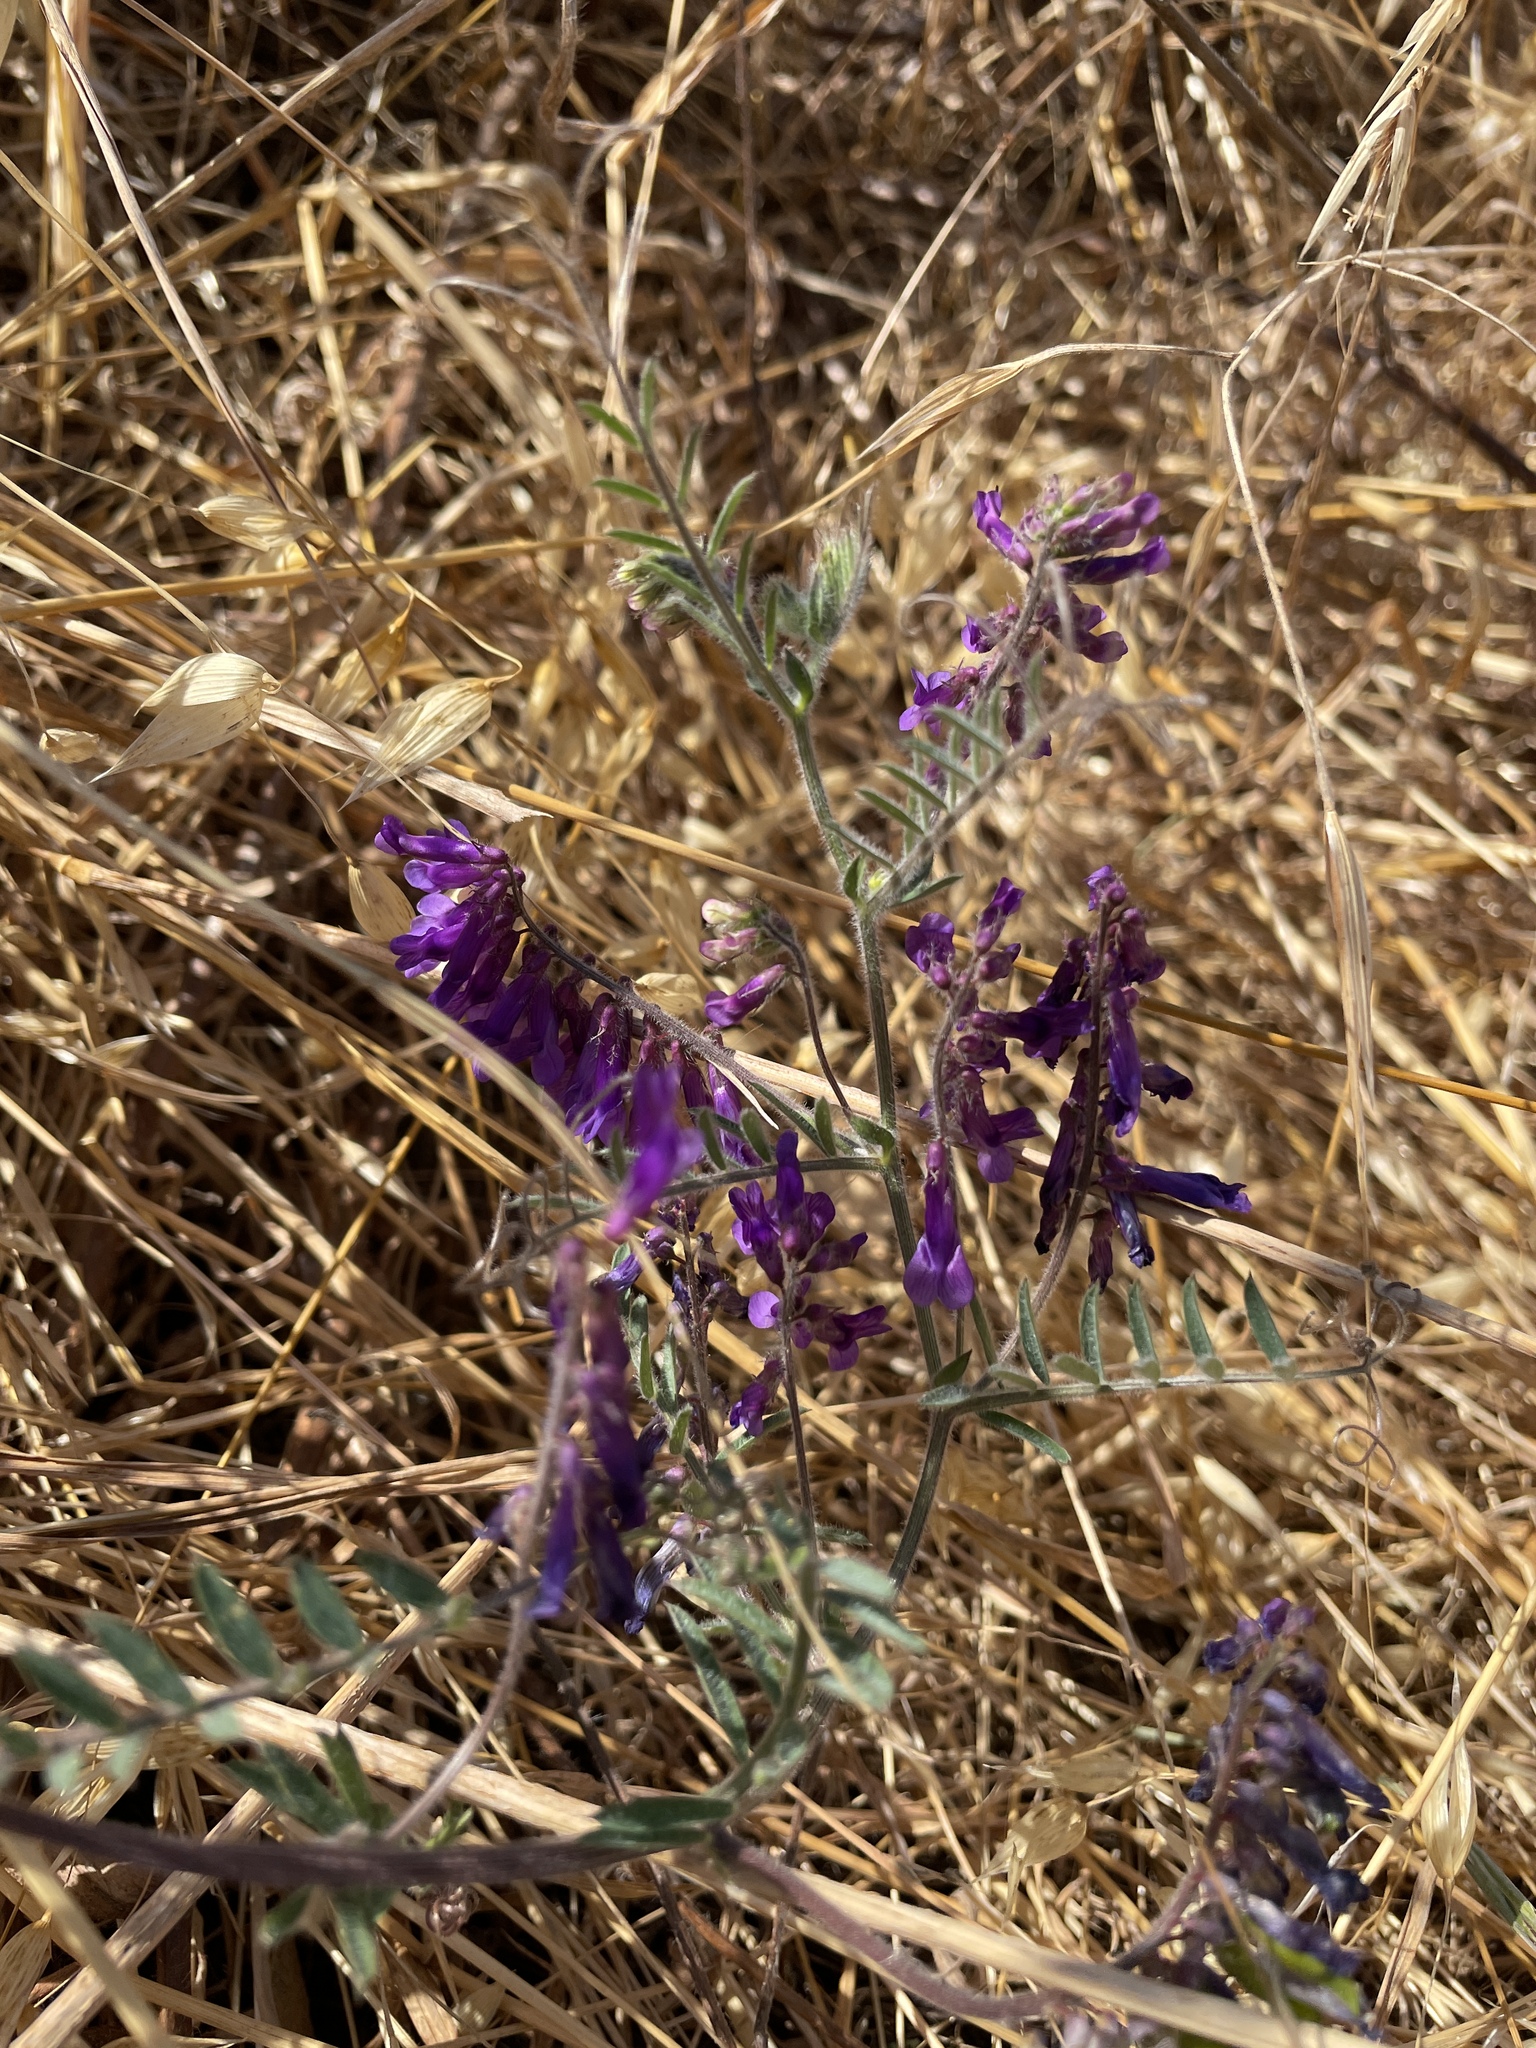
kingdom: Plantae
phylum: Tracheophyta
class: Magnoliopsida
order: Fabales
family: Fabaceae
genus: Vicia
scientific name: Vicia villosa
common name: Fodder vetch
